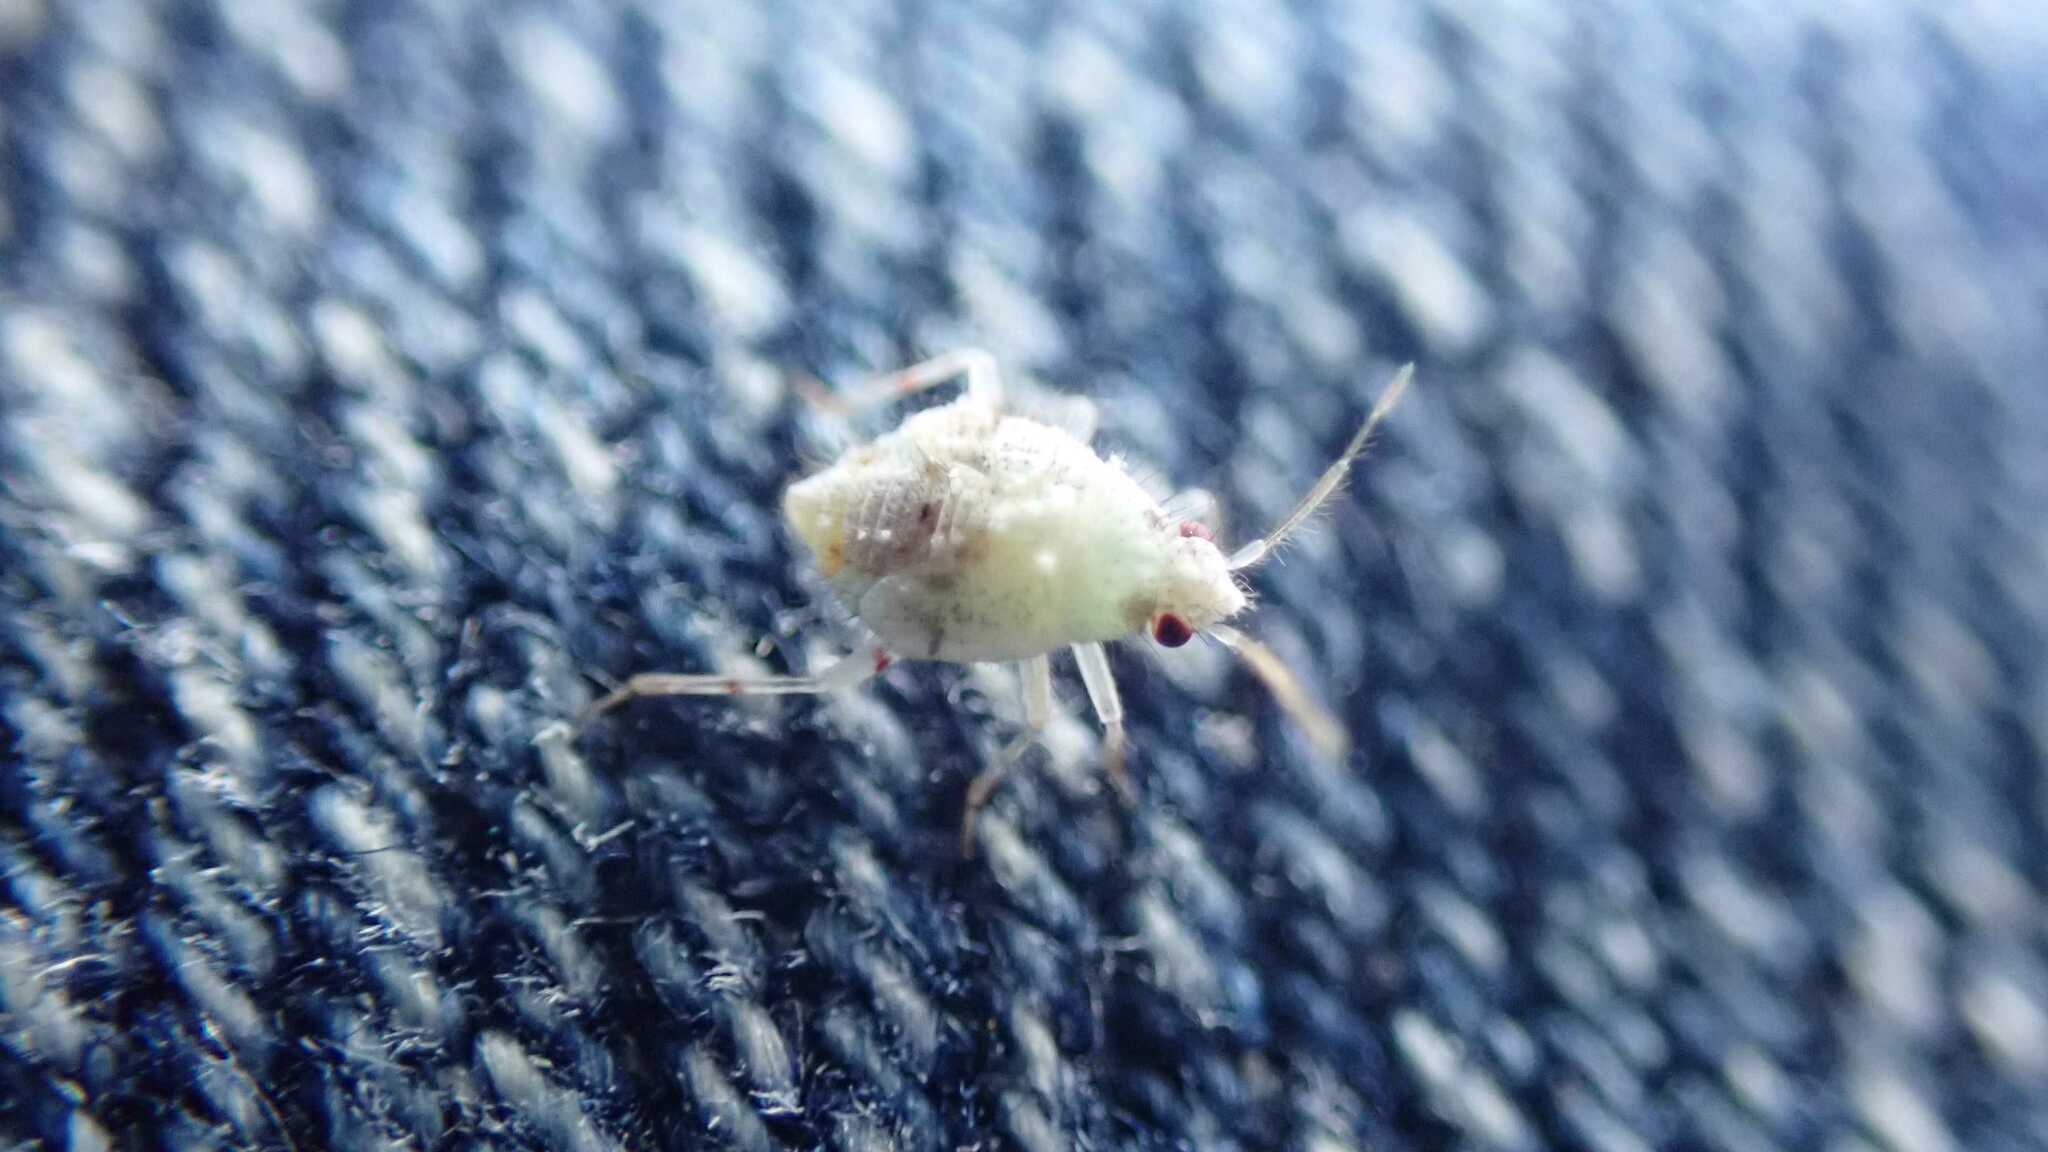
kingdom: Animalia
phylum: Arthropoda
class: Insecta
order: Hemiptera
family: Miridae
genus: Deraeocoris
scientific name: Deraeocoris lutescens
